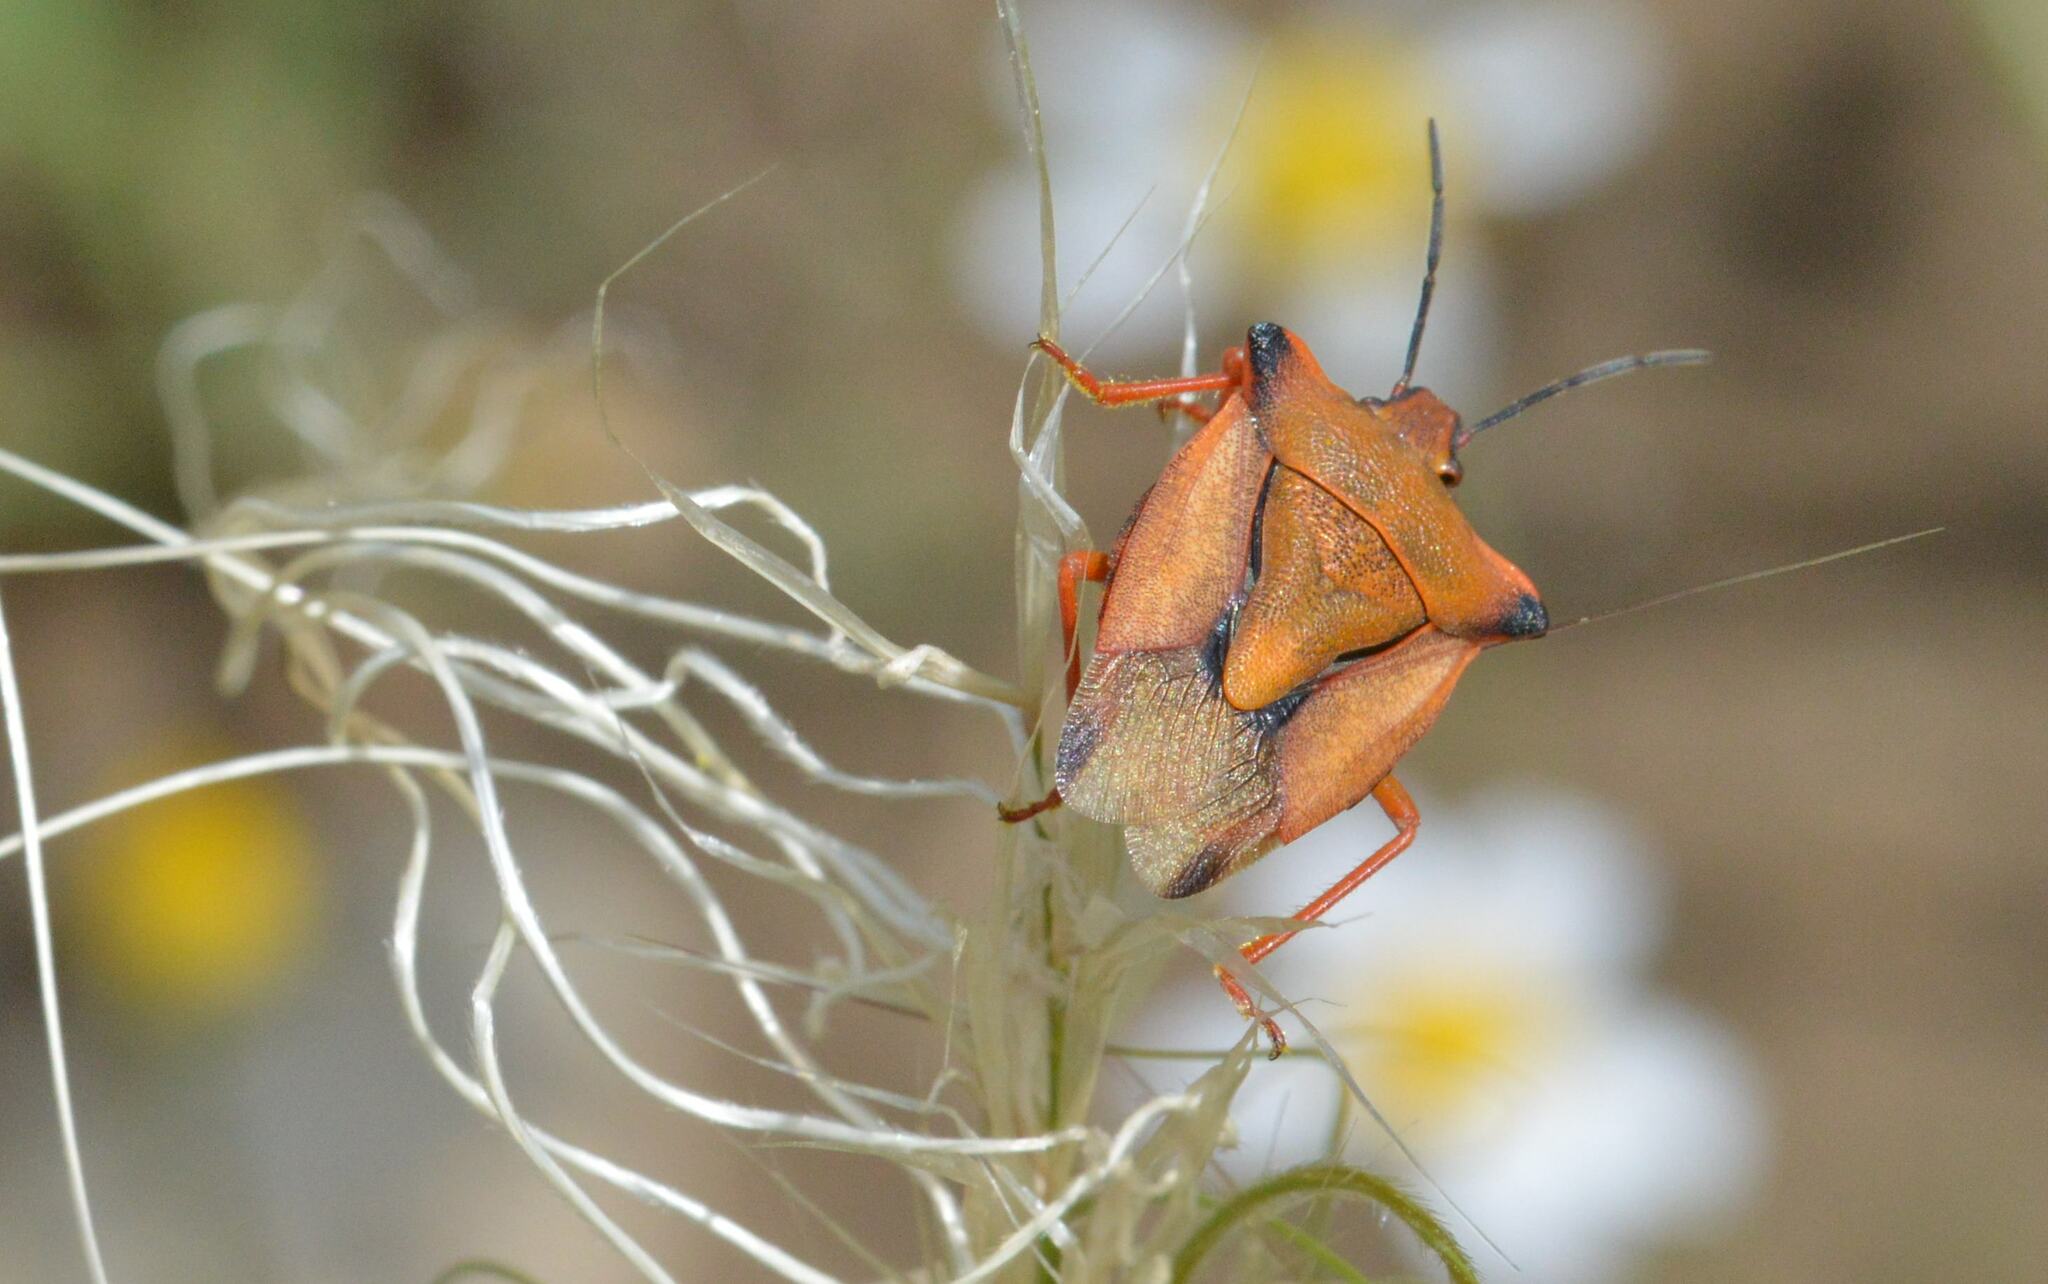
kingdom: Animalia
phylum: Arthropoda
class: Insecta
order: Hemiptera
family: Pentatomidae
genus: Carpocoris
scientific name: Carpocoris mediterraneus
